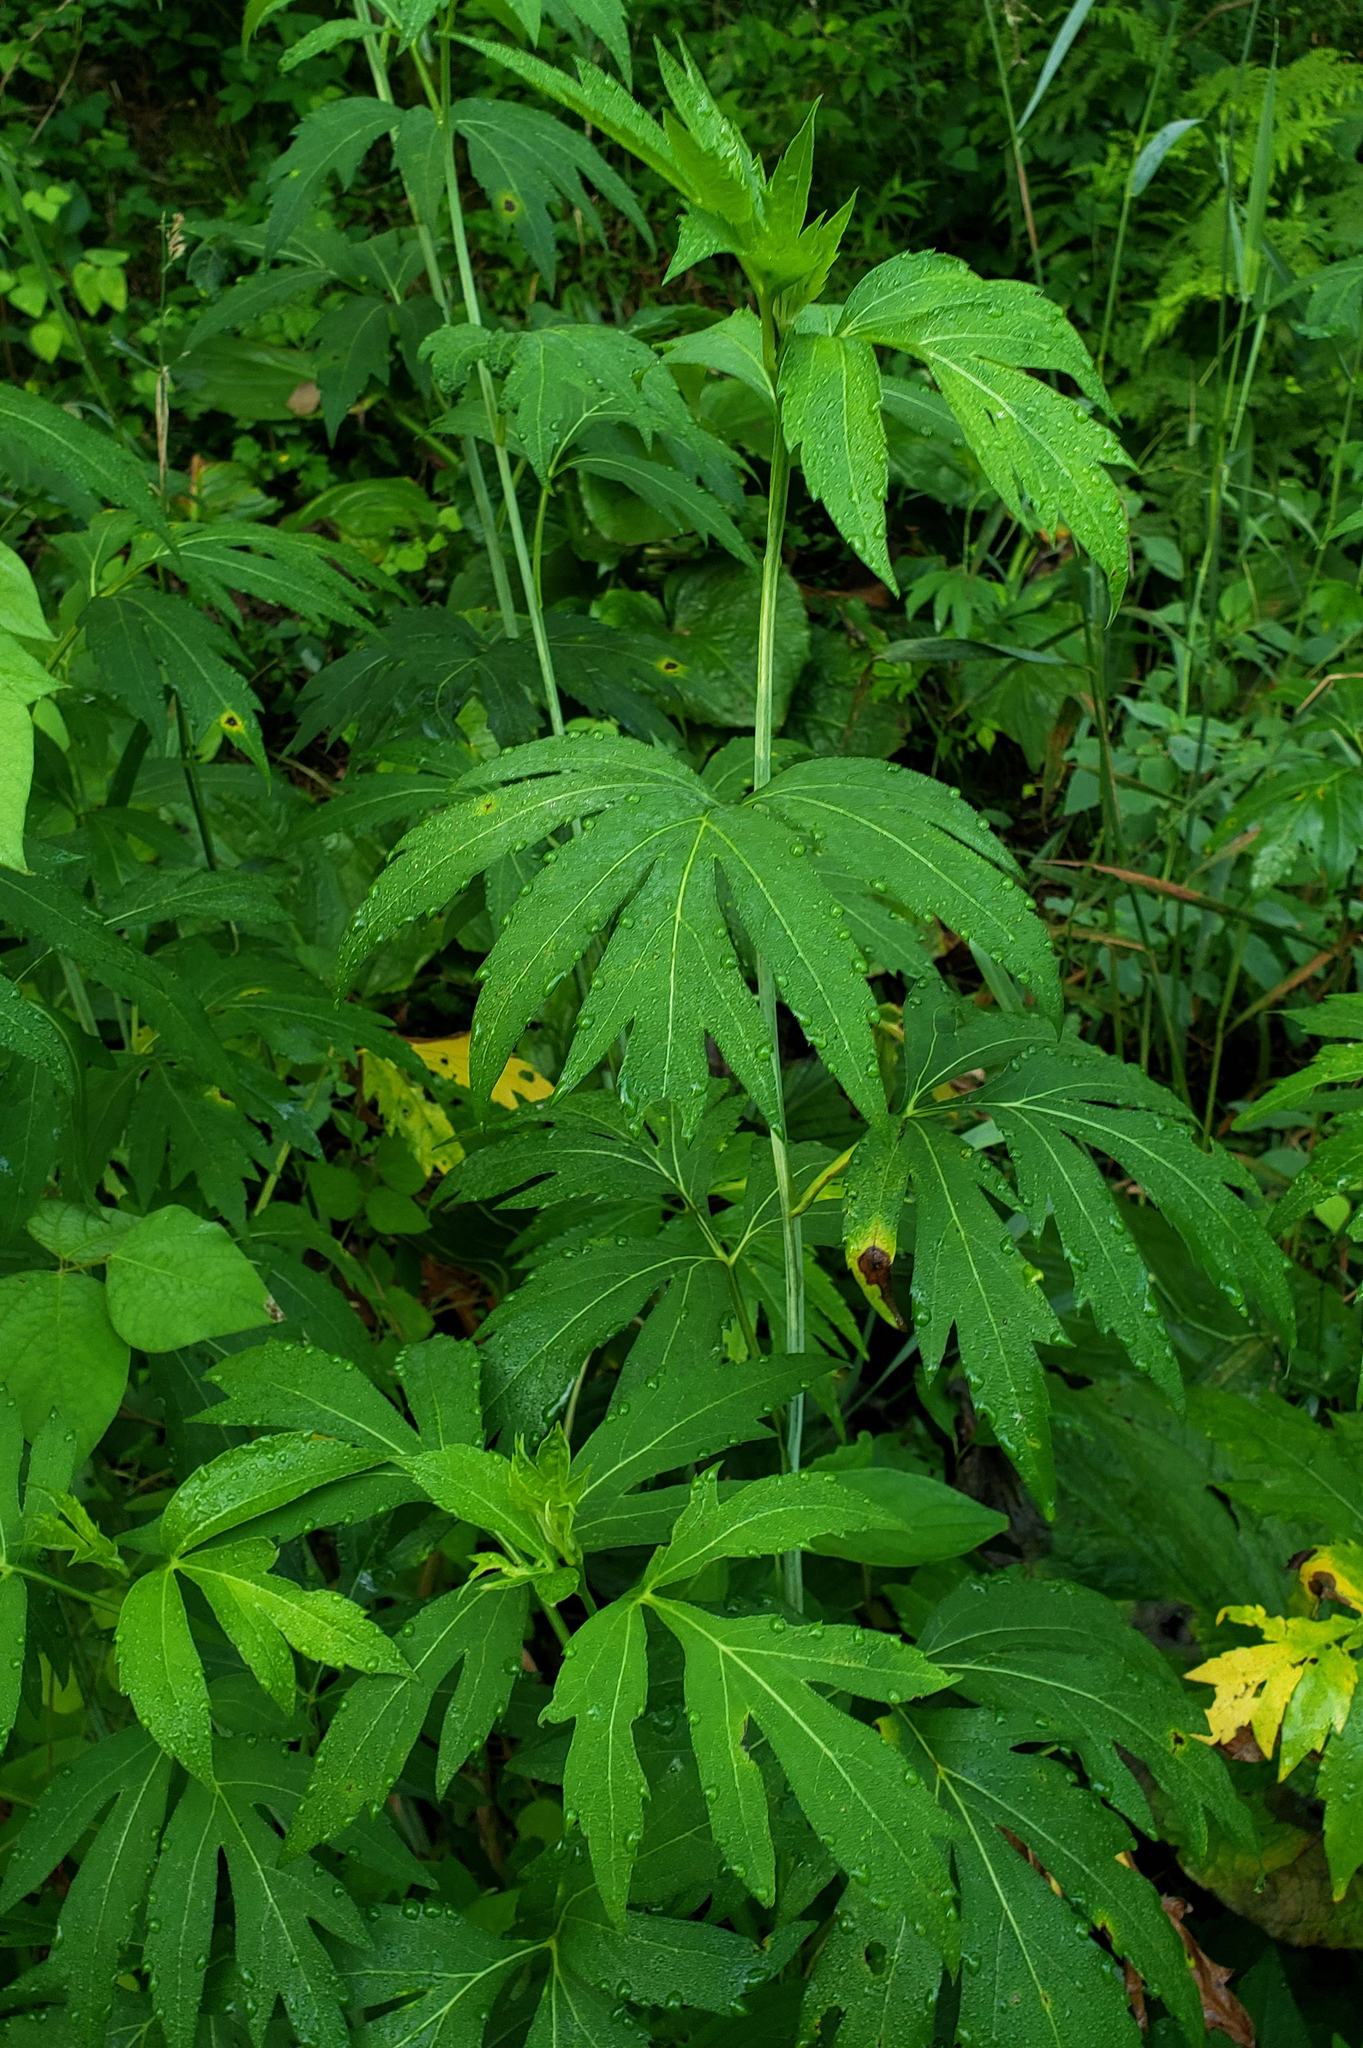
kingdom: Plantae
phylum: Tracheophyta
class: Magnoliopsida
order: Asterales
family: Asteraceae
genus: Rudbeckia
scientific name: Rudbeckia laciniata
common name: Coneflower
